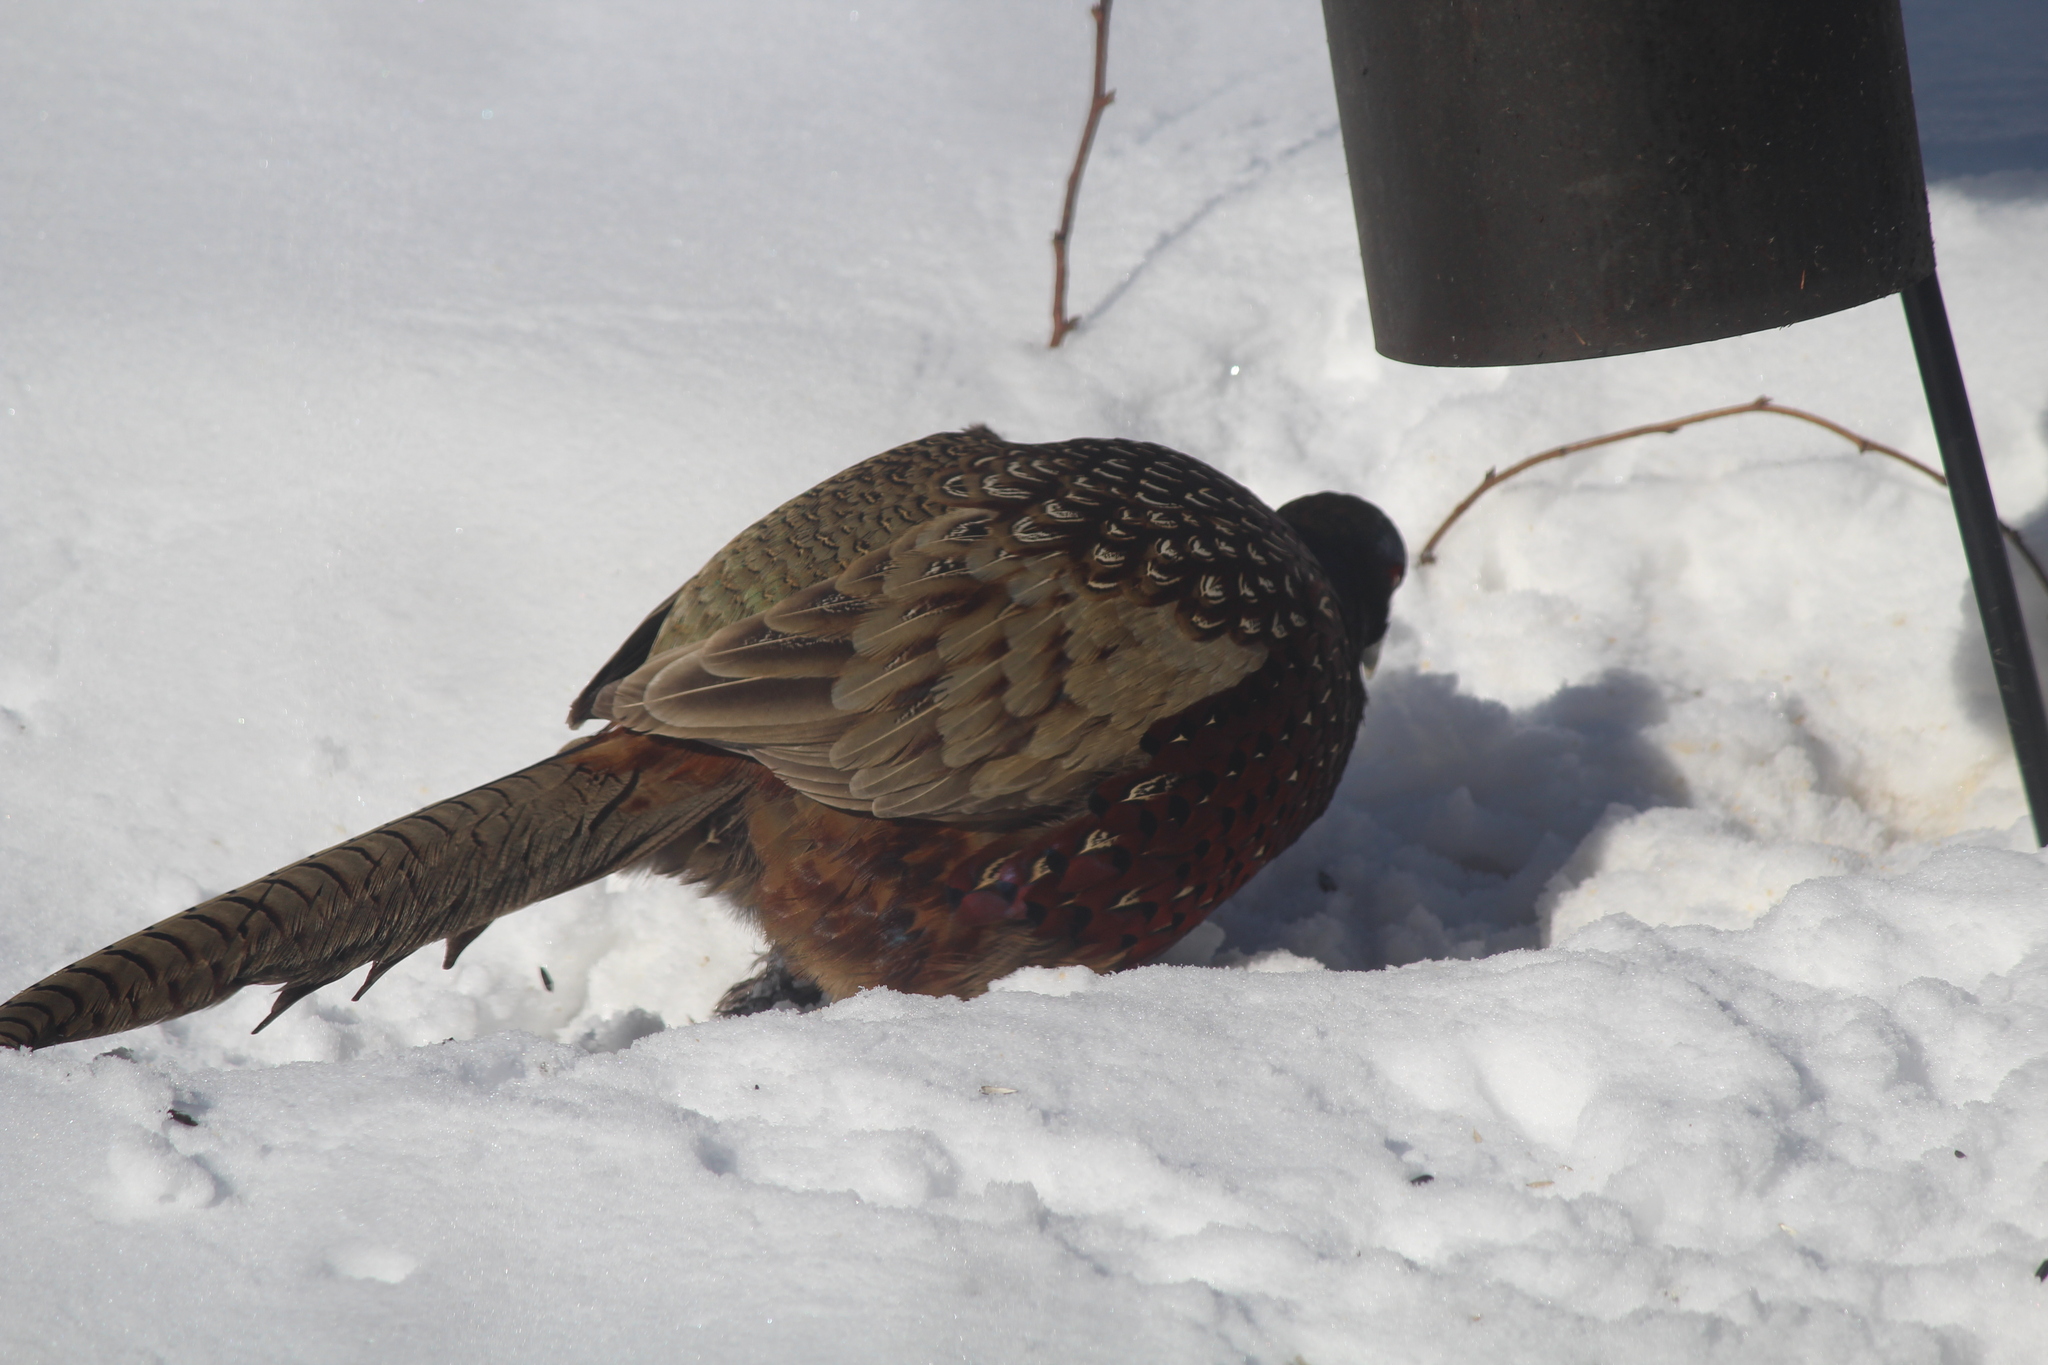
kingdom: Animalia
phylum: Chordata
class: Aves
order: Galliformes
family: Phasianidae
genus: Phasianus
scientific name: Phasianus colchicus
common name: Common pheasant
